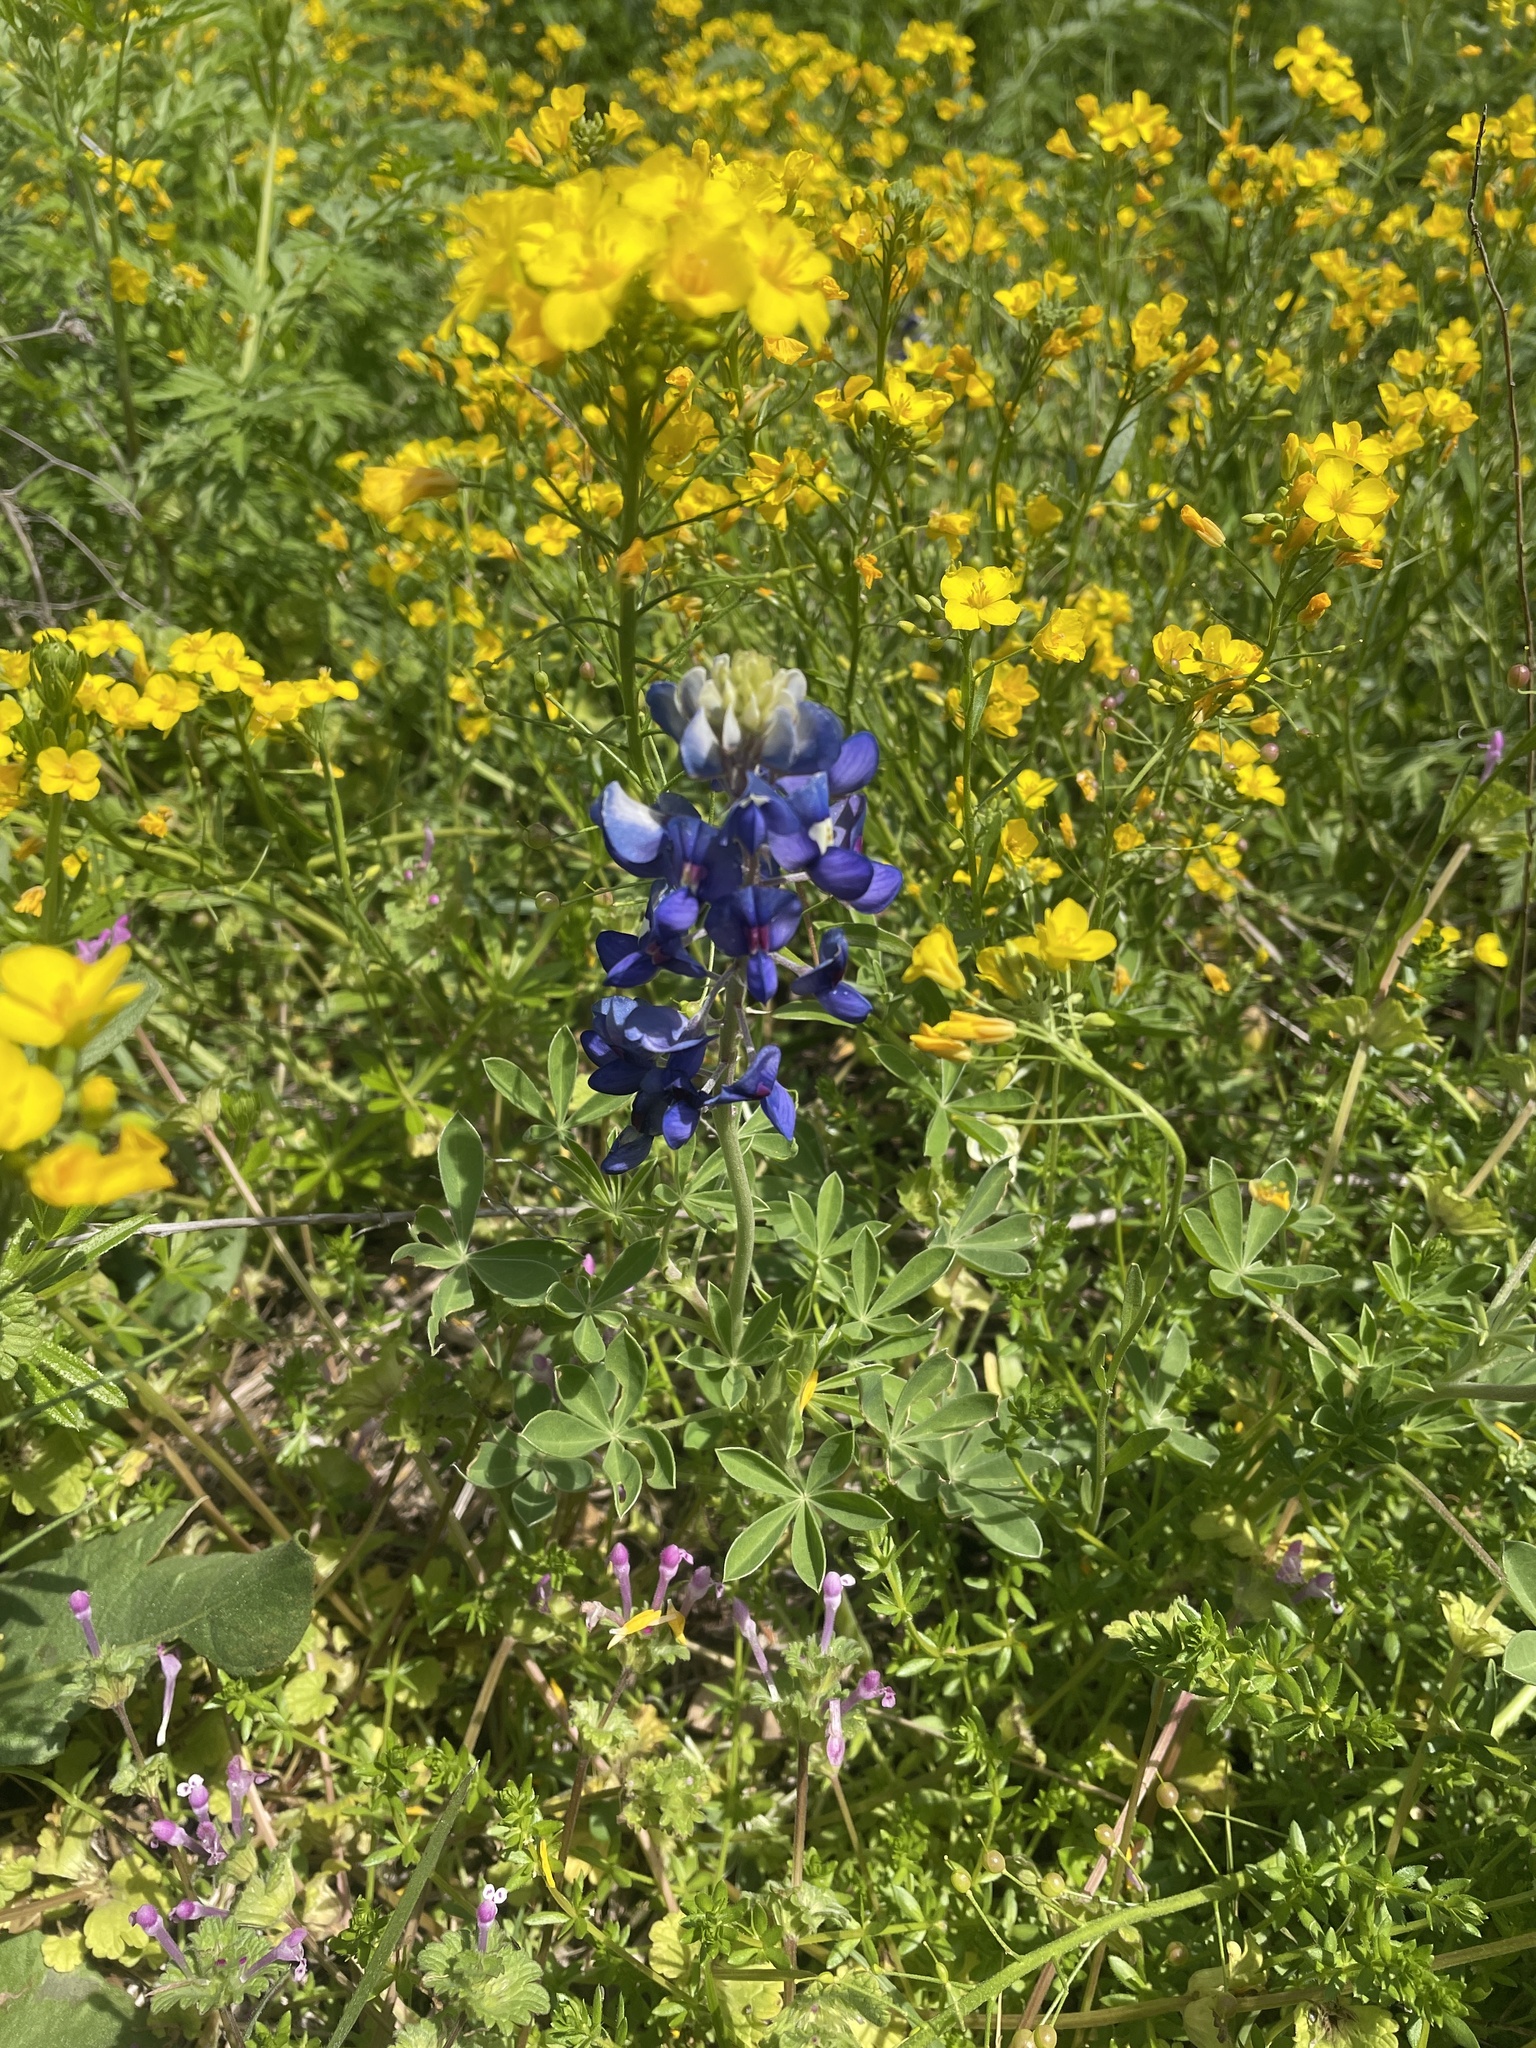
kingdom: Plantae
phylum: Tracheophyta
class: Magnoliopsida
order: Fabales
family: Fabaceae
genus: Lupinus
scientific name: Lupinus texensis
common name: Texas bluebonnet
